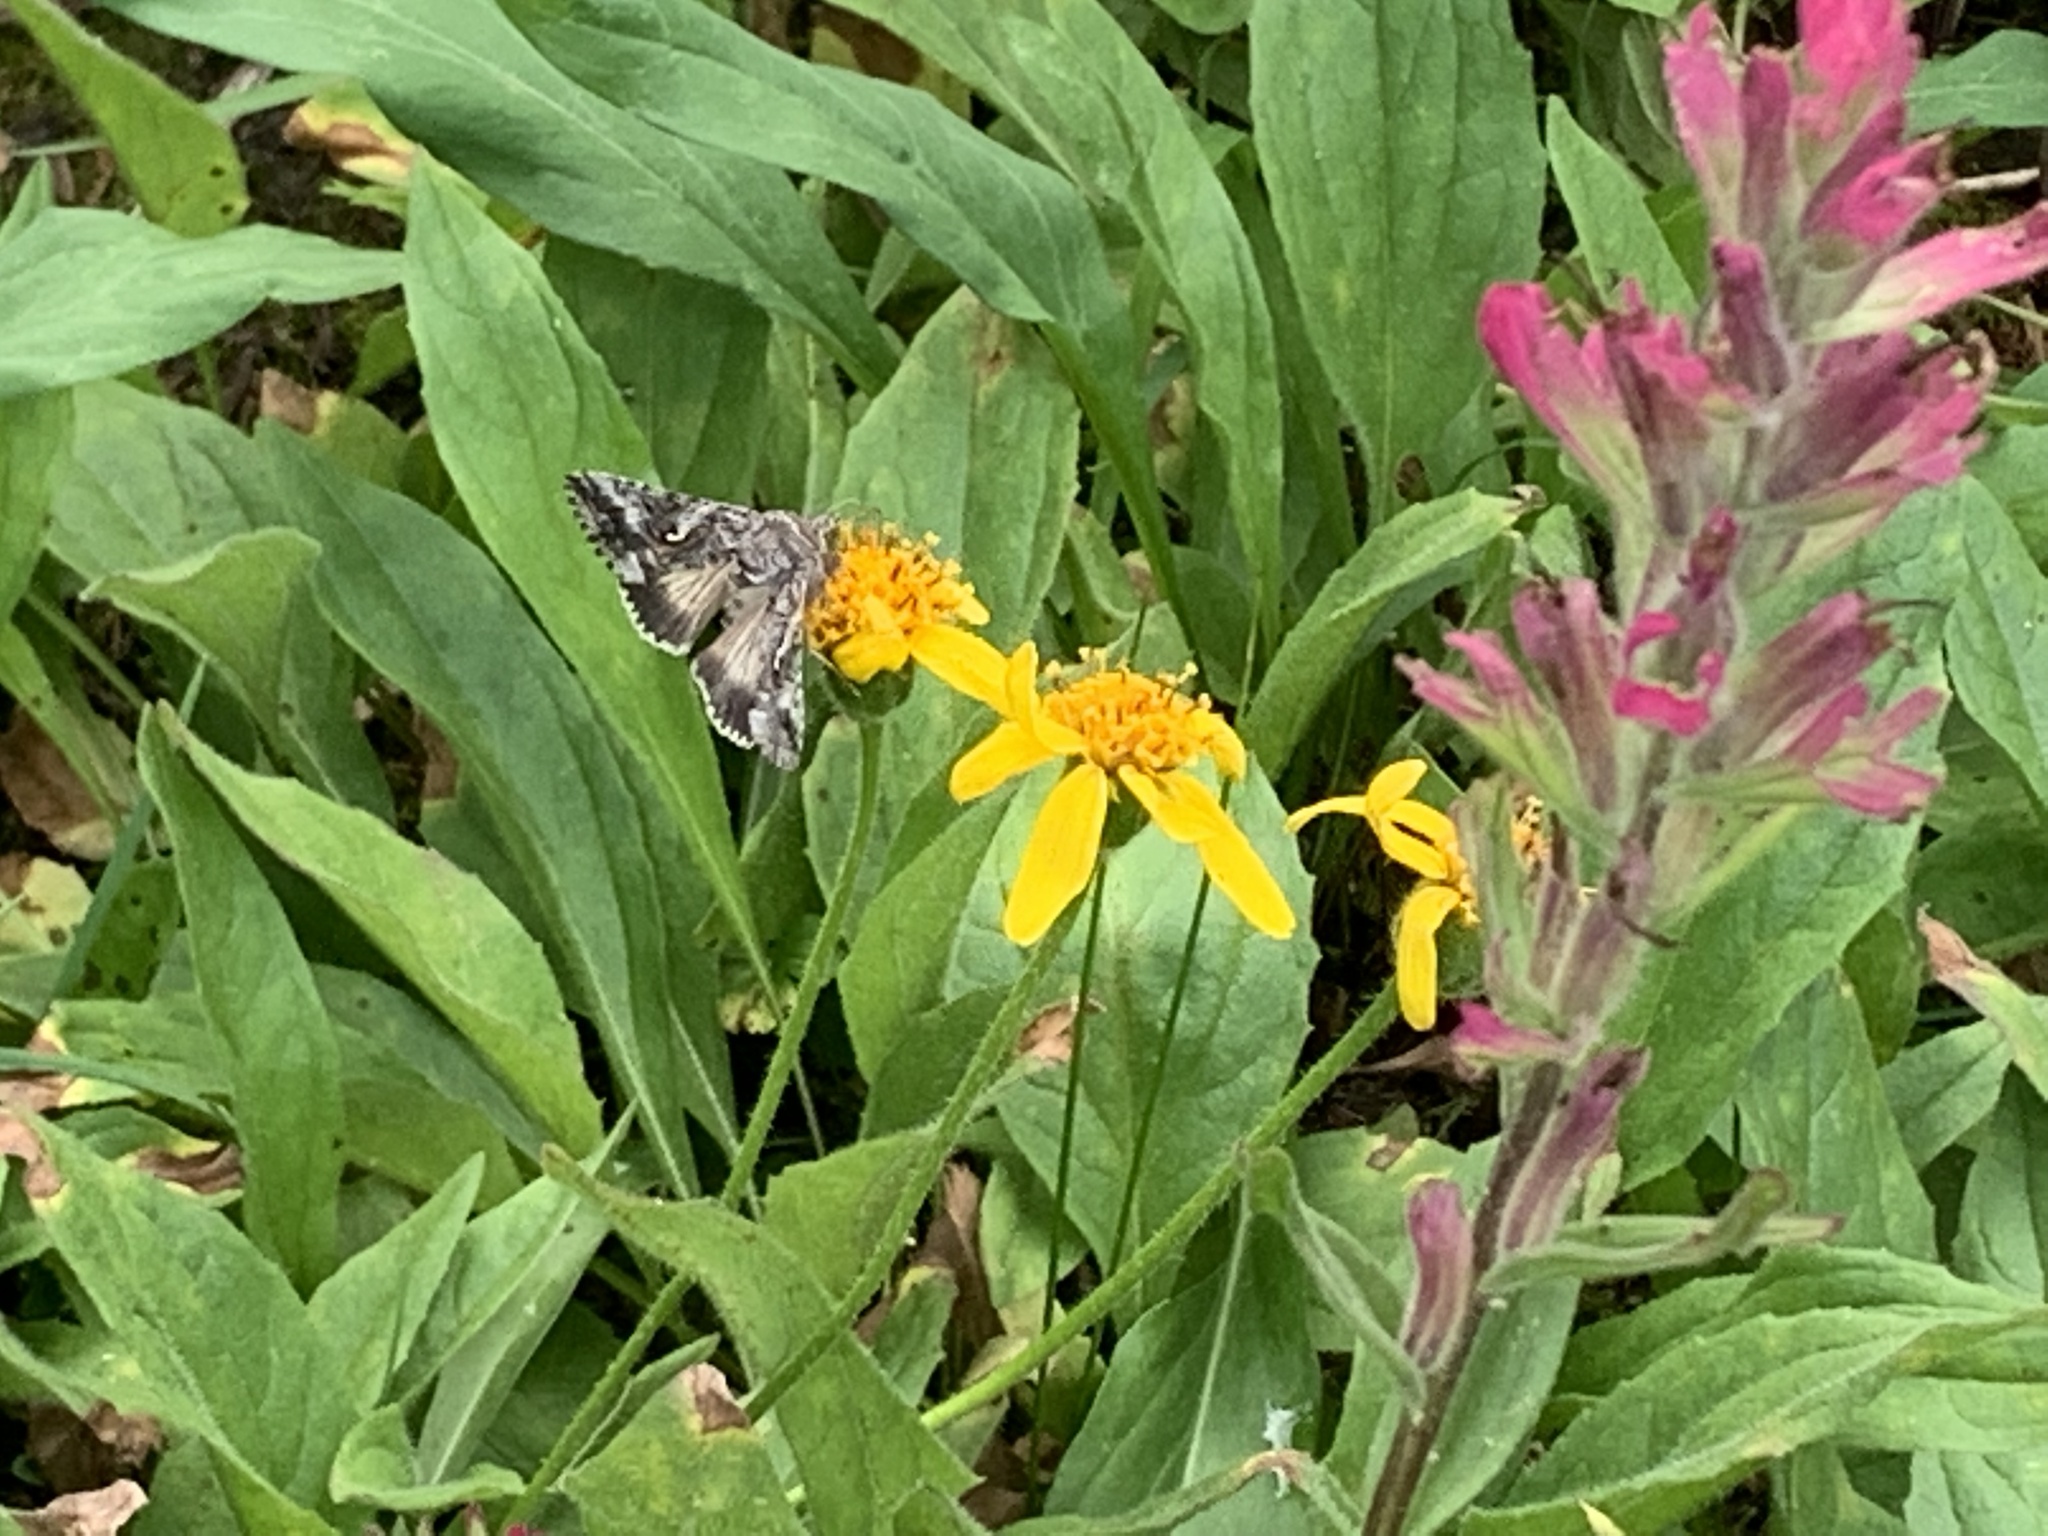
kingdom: Animalia
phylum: Arthropoda
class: Insecta
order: Lepidoptera
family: Noctuidae
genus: Autographa
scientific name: Autographa californica
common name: Alfalfa looper
